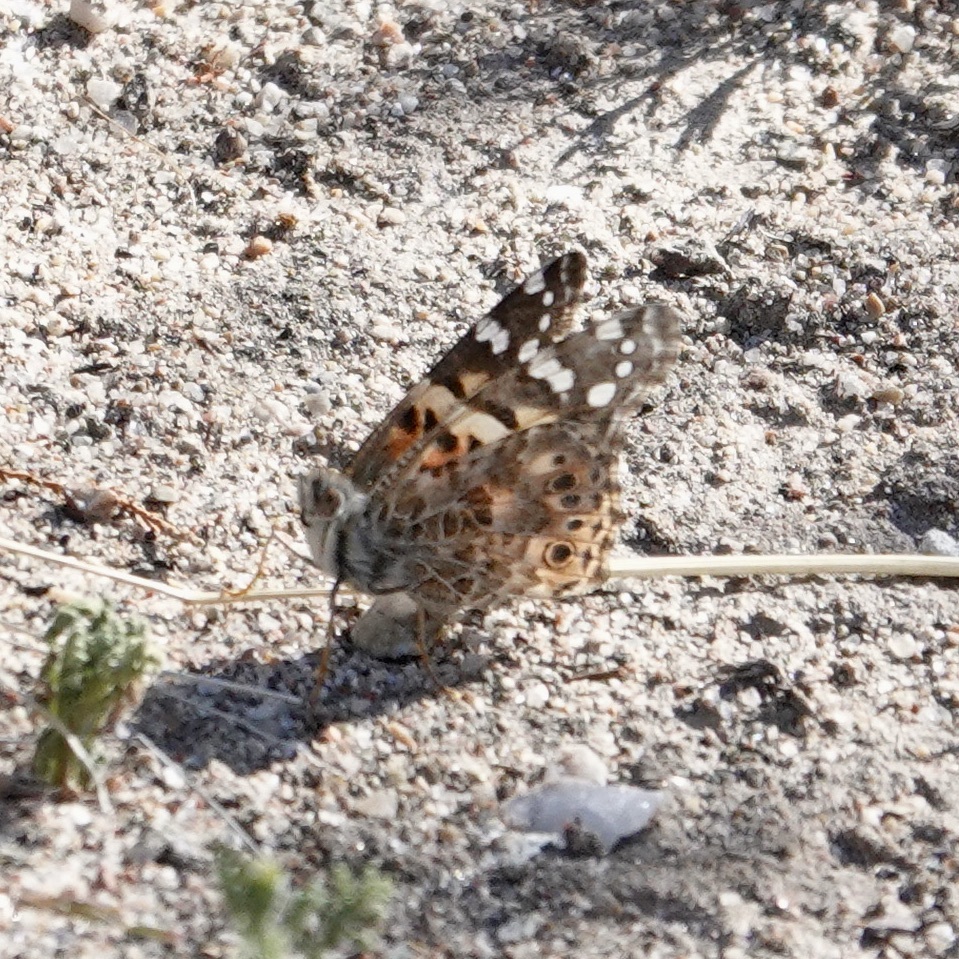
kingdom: Animalia
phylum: Arthropoda
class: Insecta
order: Lepidoptera
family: Nymphalidae
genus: Vanessa
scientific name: Vanessa cardui
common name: Painted lady
